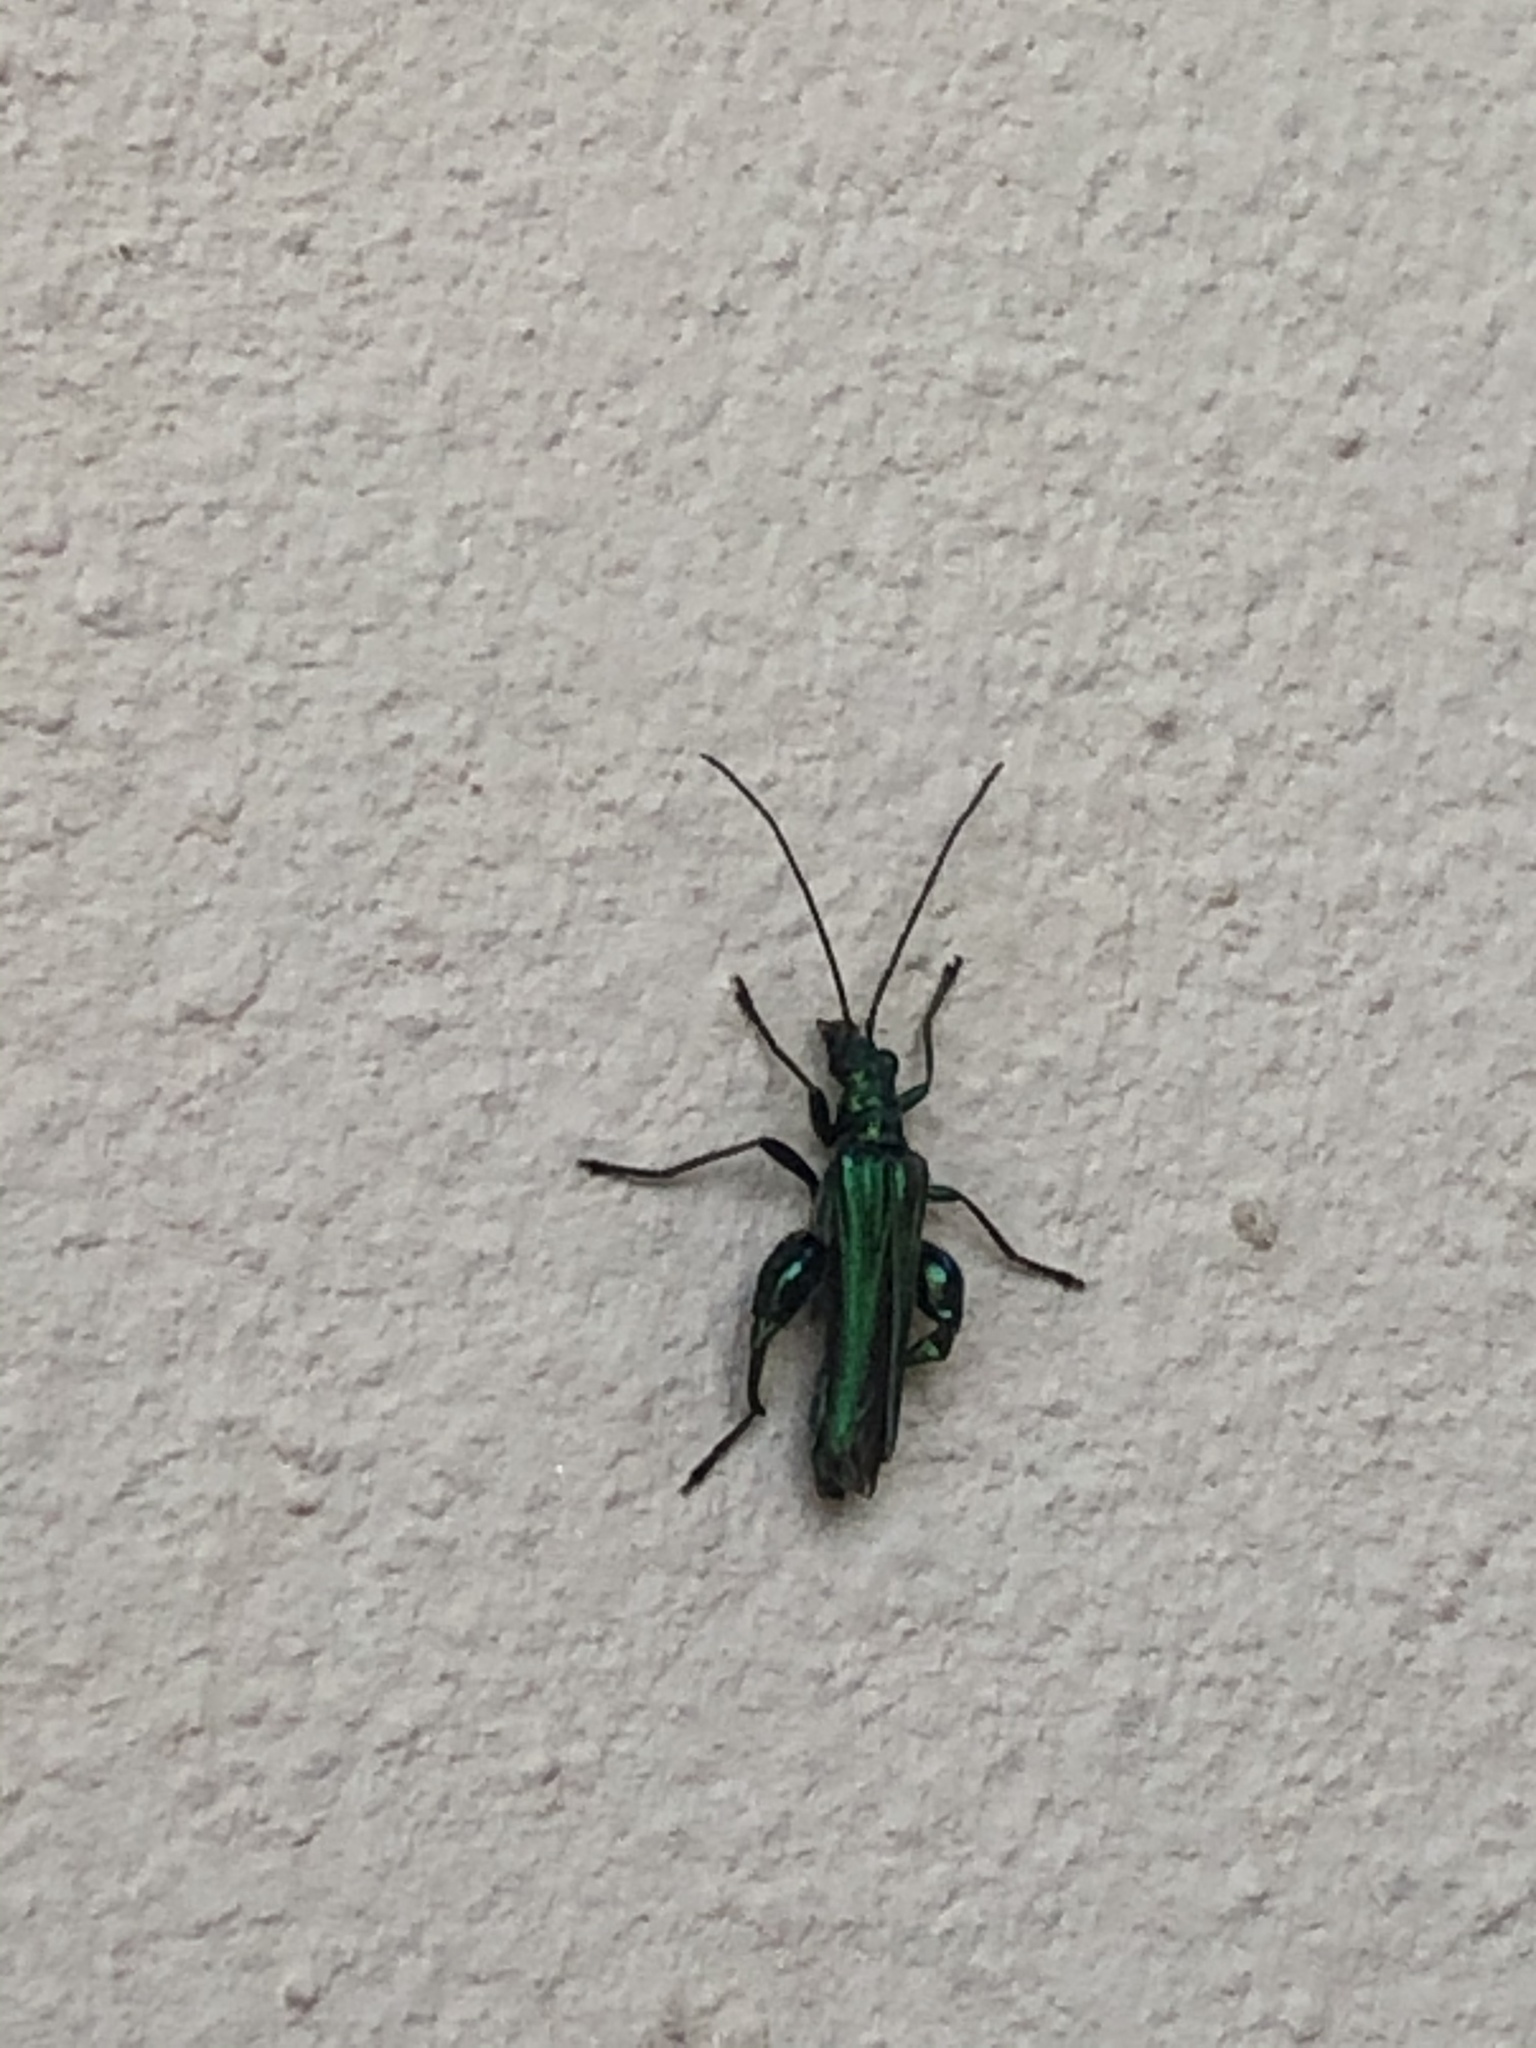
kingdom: Animalia
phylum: Arthropoda
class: Insecta
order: Coleoptera
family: Oedemeridae
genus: Oedemera
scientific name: Oedemera nobilis
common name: Swollen-thighed beetle
